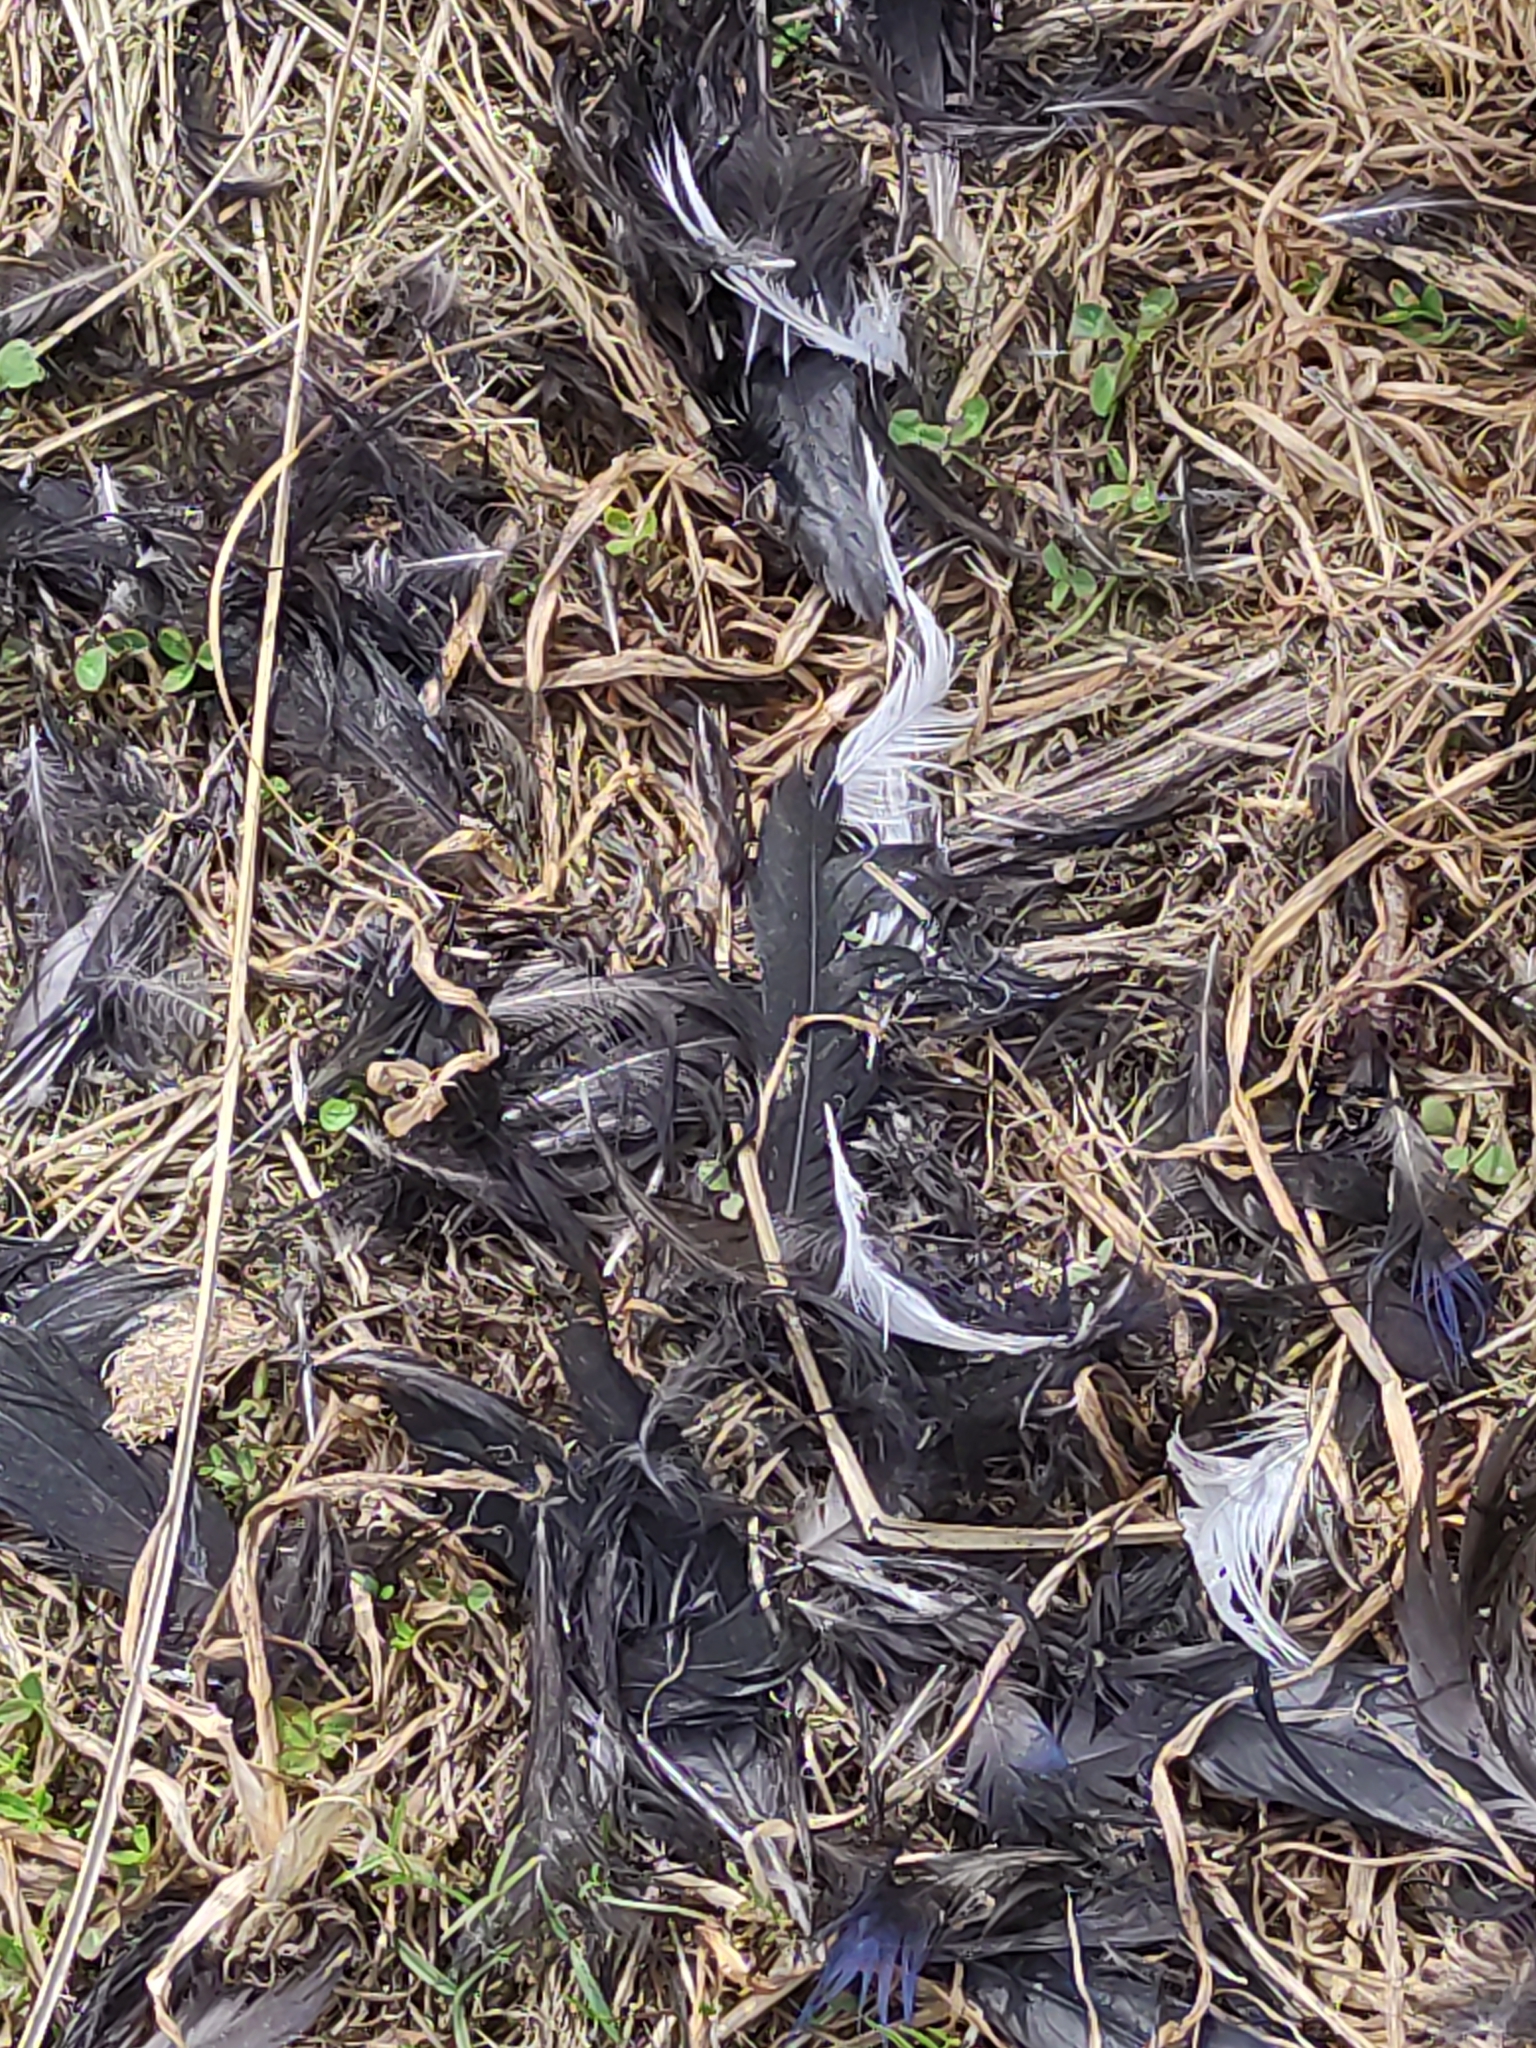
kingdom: Animalia
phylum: Chordata
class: Aves
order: Gruiformes
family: Rallidae
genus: Porphyrio
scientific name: Porphyrio melanotus
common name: Australasian swamphen
